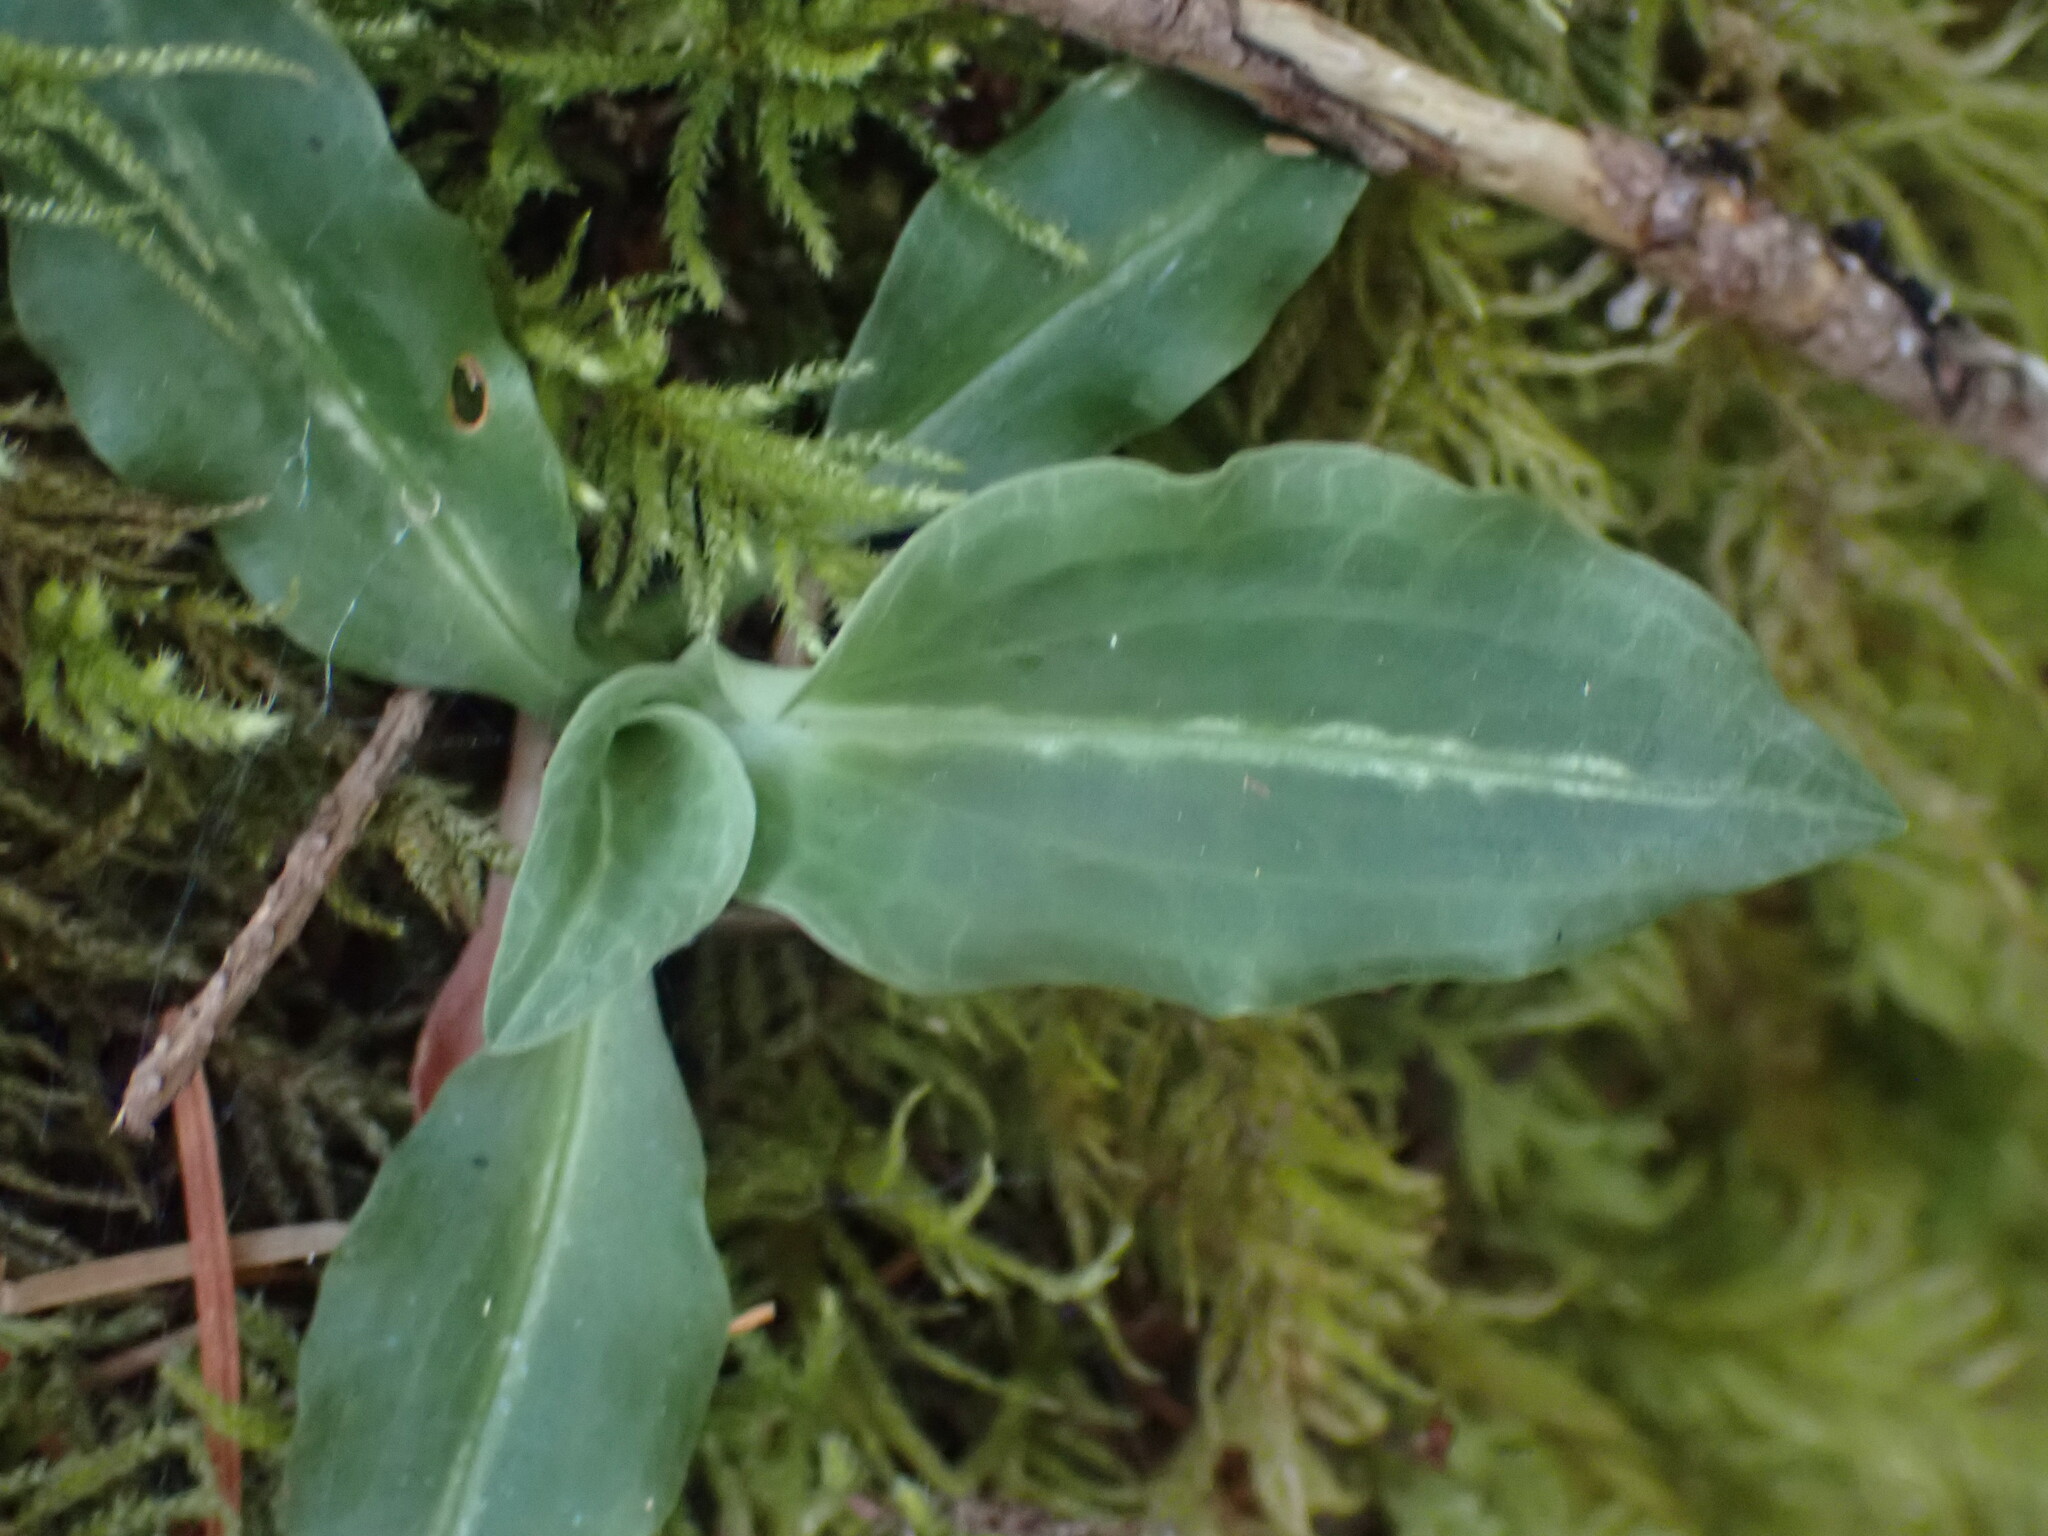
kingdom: Plantae
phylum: Tracheophyta
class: Liliopsida
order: Asparagales
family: Orchidaceae
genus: Goodyera
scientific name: Goodyera oblongifolia
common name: Giant rattlesnake-plantain
